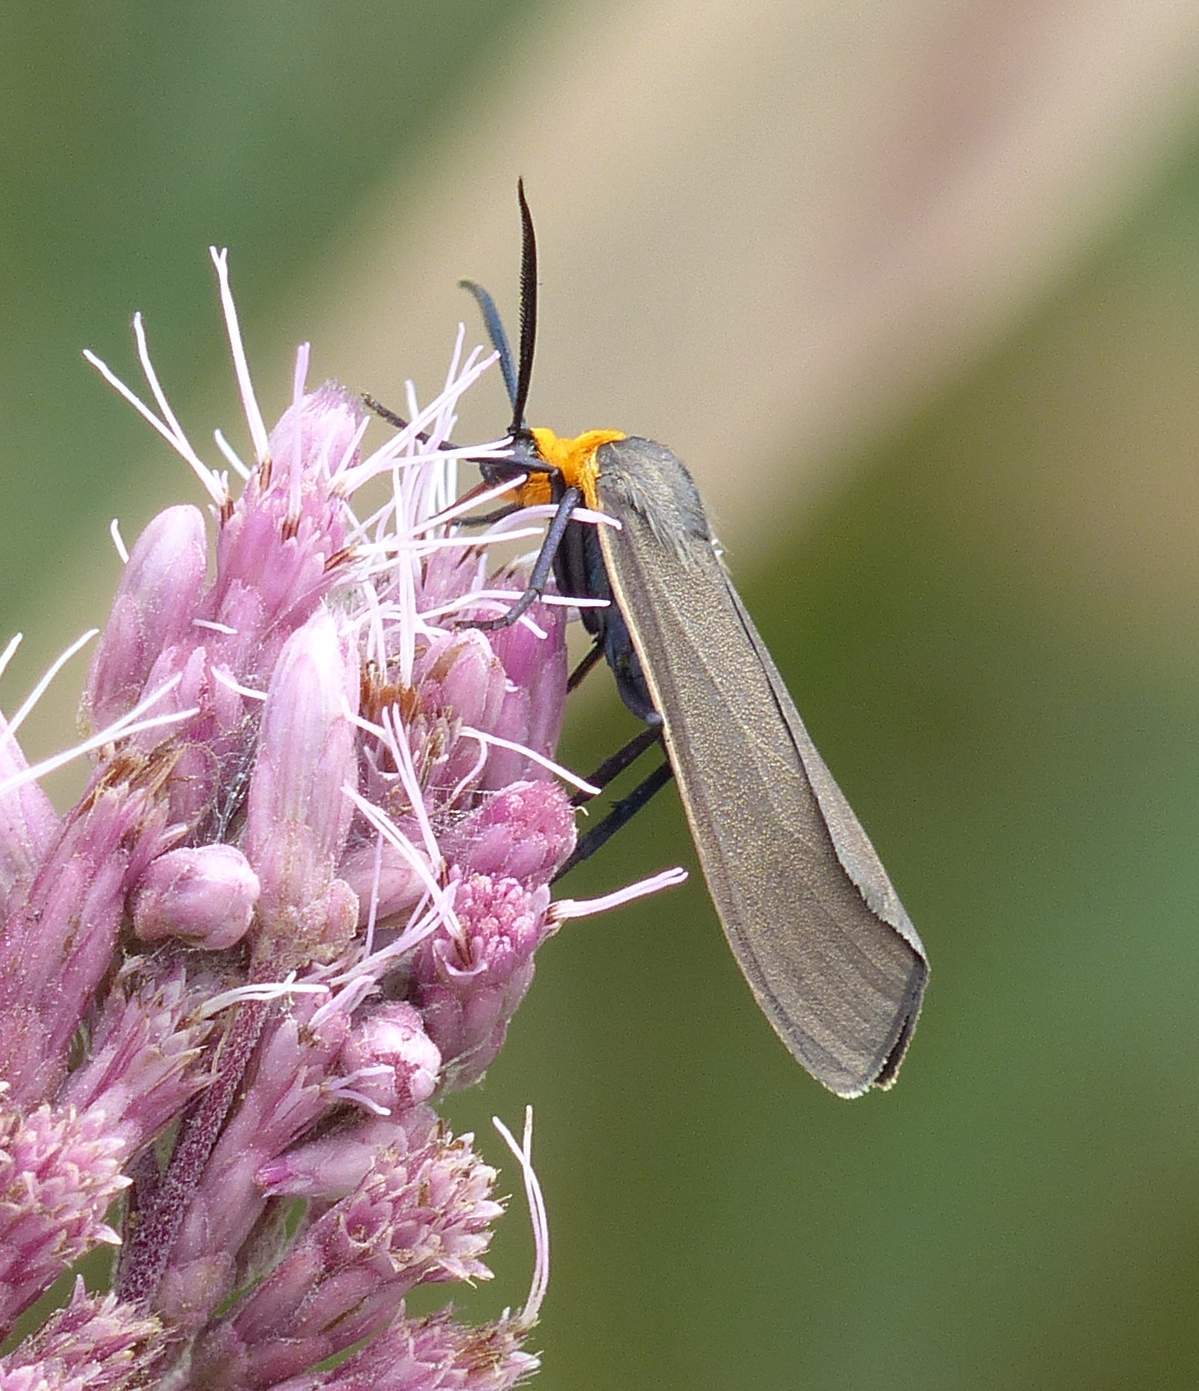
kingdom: Animalia
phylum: Arthropoda
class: Insecta
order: Lepidoptera
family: Erebidae
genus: Ctenucha
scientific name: Ctenucha virginica
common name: Virginia ctenucha moth
